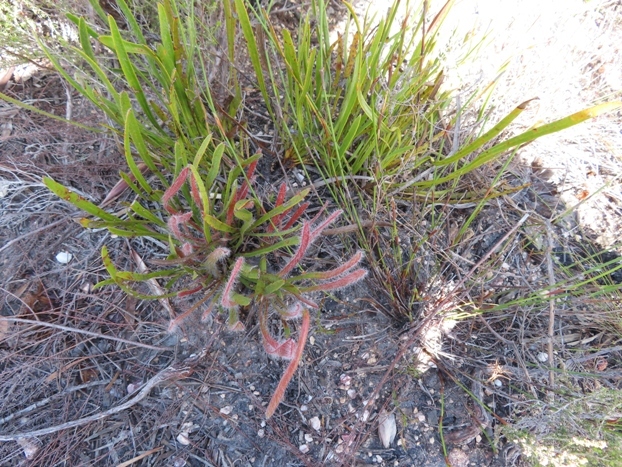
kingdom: Plantae
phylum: Tracheophyta
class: Magnoliopsida
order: Proteales
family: Proteaceae
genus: Protea
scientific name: Protea aspera
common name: Rough-leaf sugarbush
